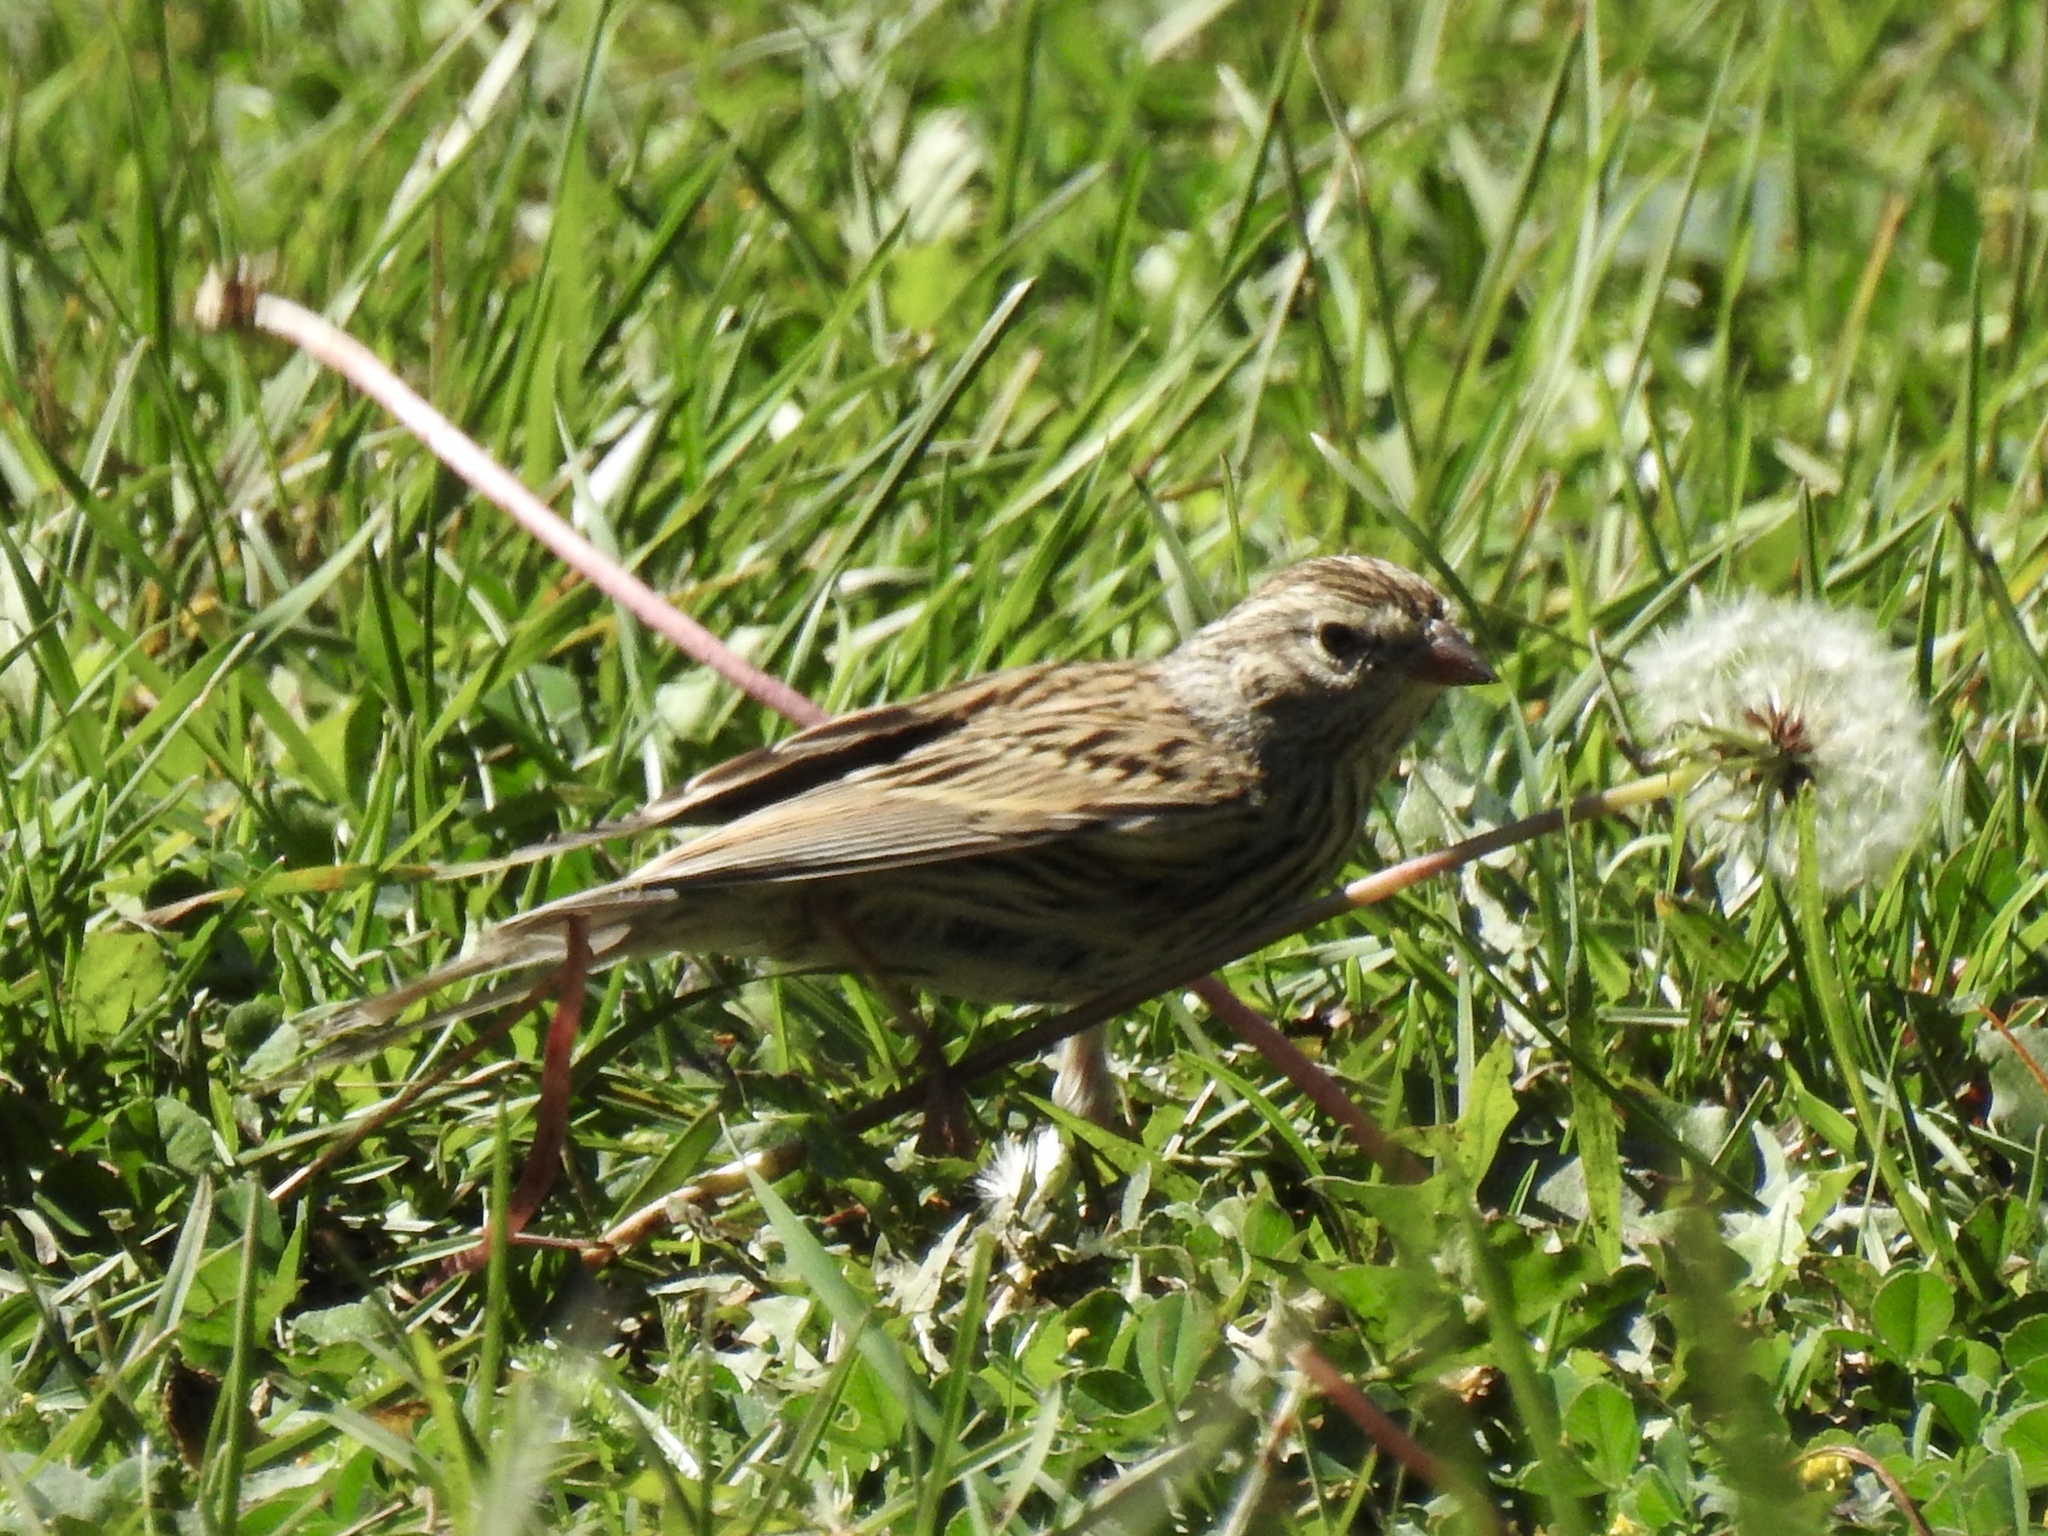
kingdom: Animalia
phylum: Chordata
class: Aves
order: Passeriformes
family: Passerellidae
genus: Spizella
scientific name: Spizella passerina
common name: Chipping sparrow
